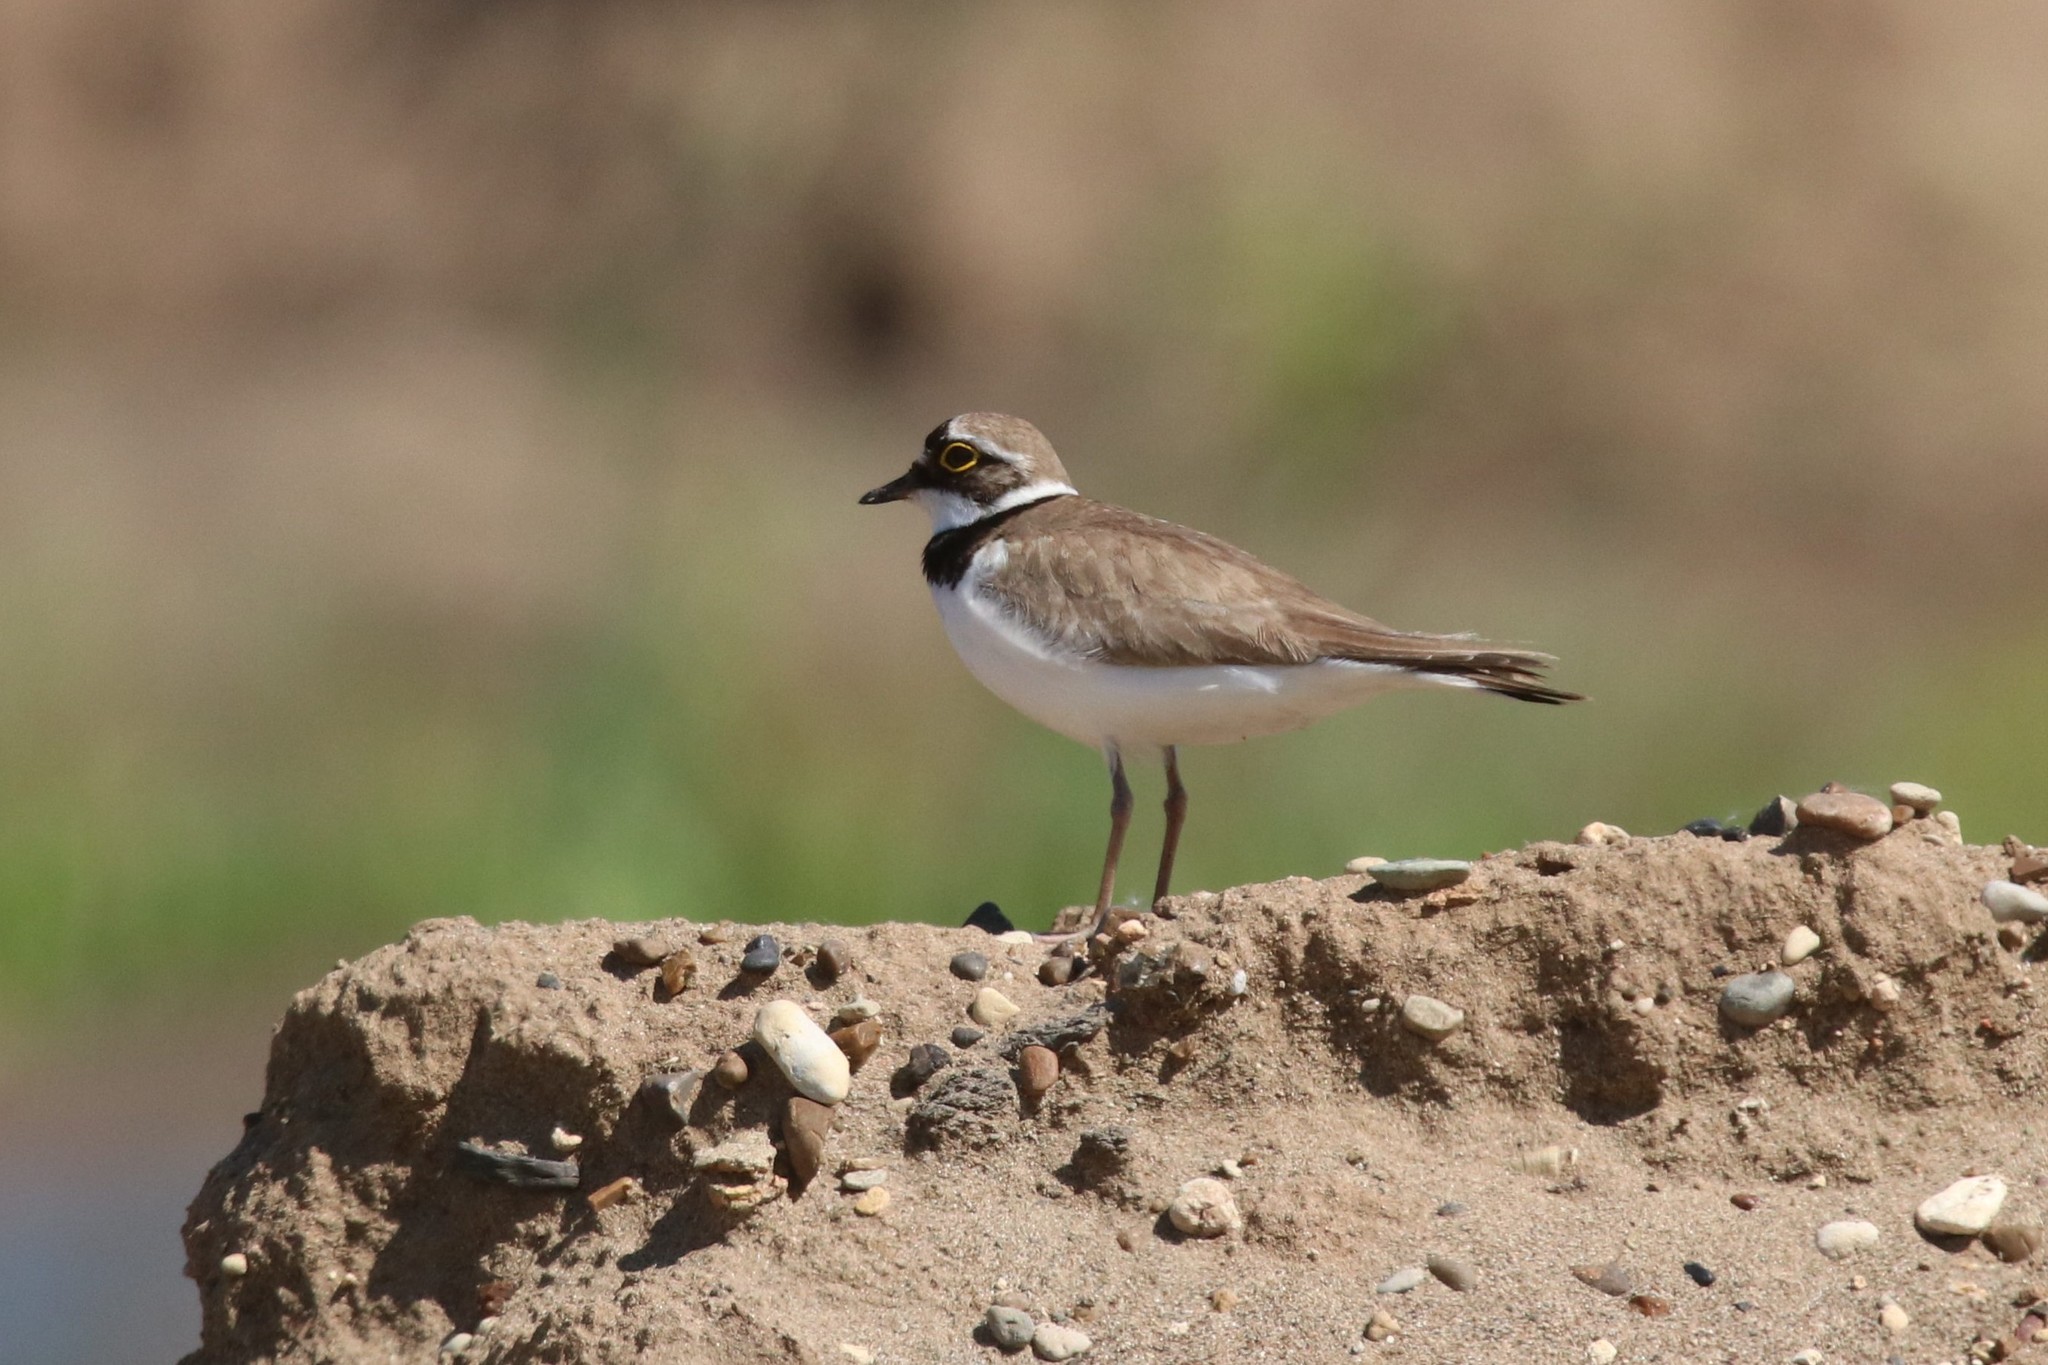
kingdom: Animalia
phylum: Chordata
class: Aves
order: Charadriiformes
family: Charadriidae
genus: Charadrius
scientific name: Charadrius dubius
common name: Little ringed plover
